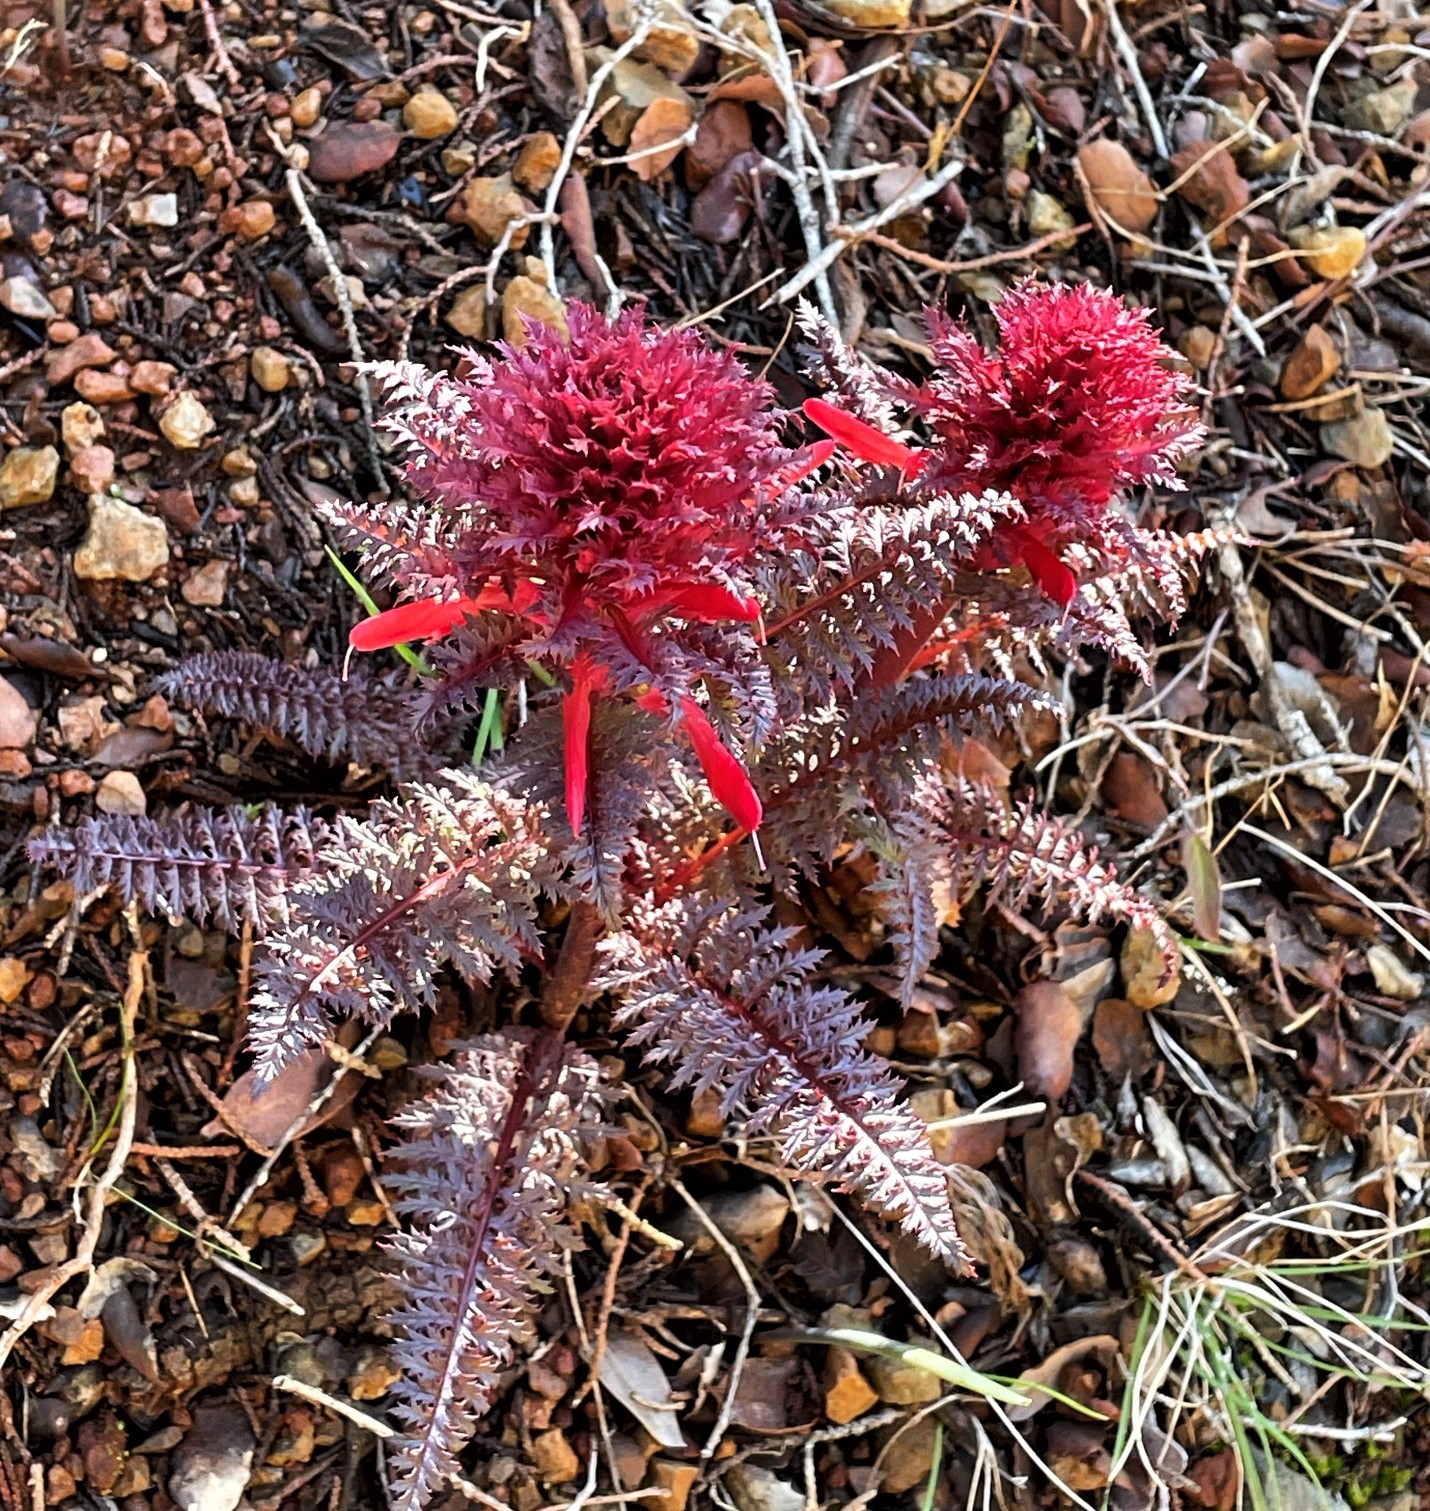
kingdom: Plantae
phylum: Tracheophyta
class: Magnoliopsida
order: Lamiales
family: Orobanchaceae
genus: Pedicularis
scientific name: Pedicularis densiflora
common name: Indian warrior
